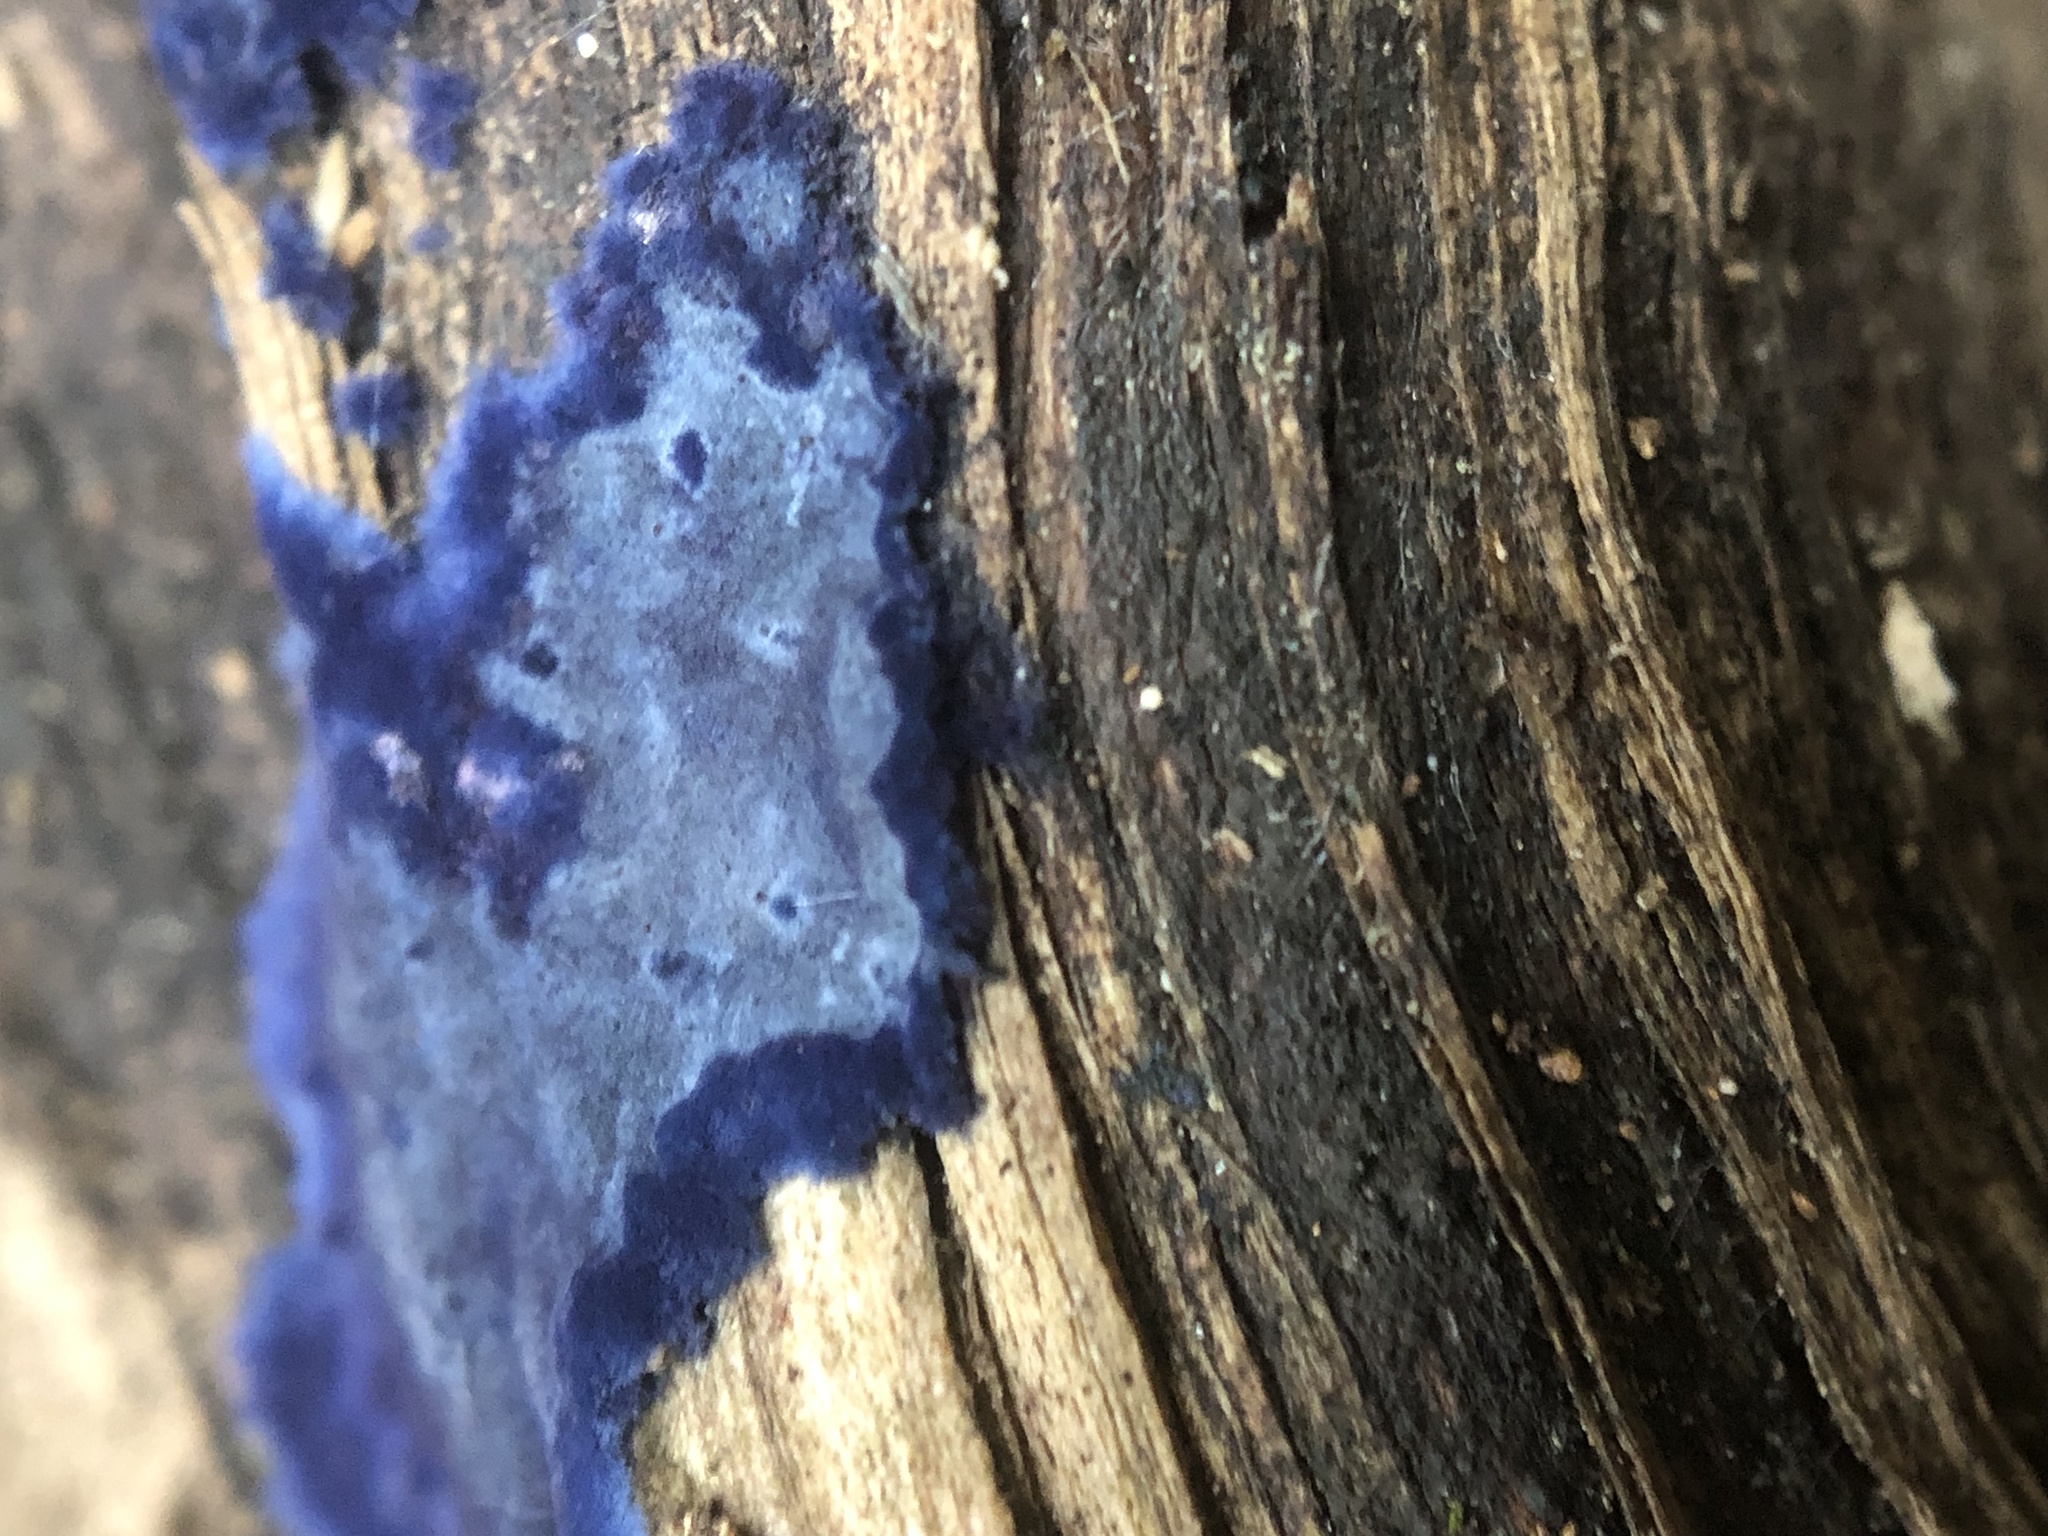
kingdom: Fungi
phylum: Basidiomycota
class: Agaricomycetes
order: Polyporales
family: Phanerochaetaceae
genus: Terana
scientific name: Terana coerulea
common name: Cobalt crust
